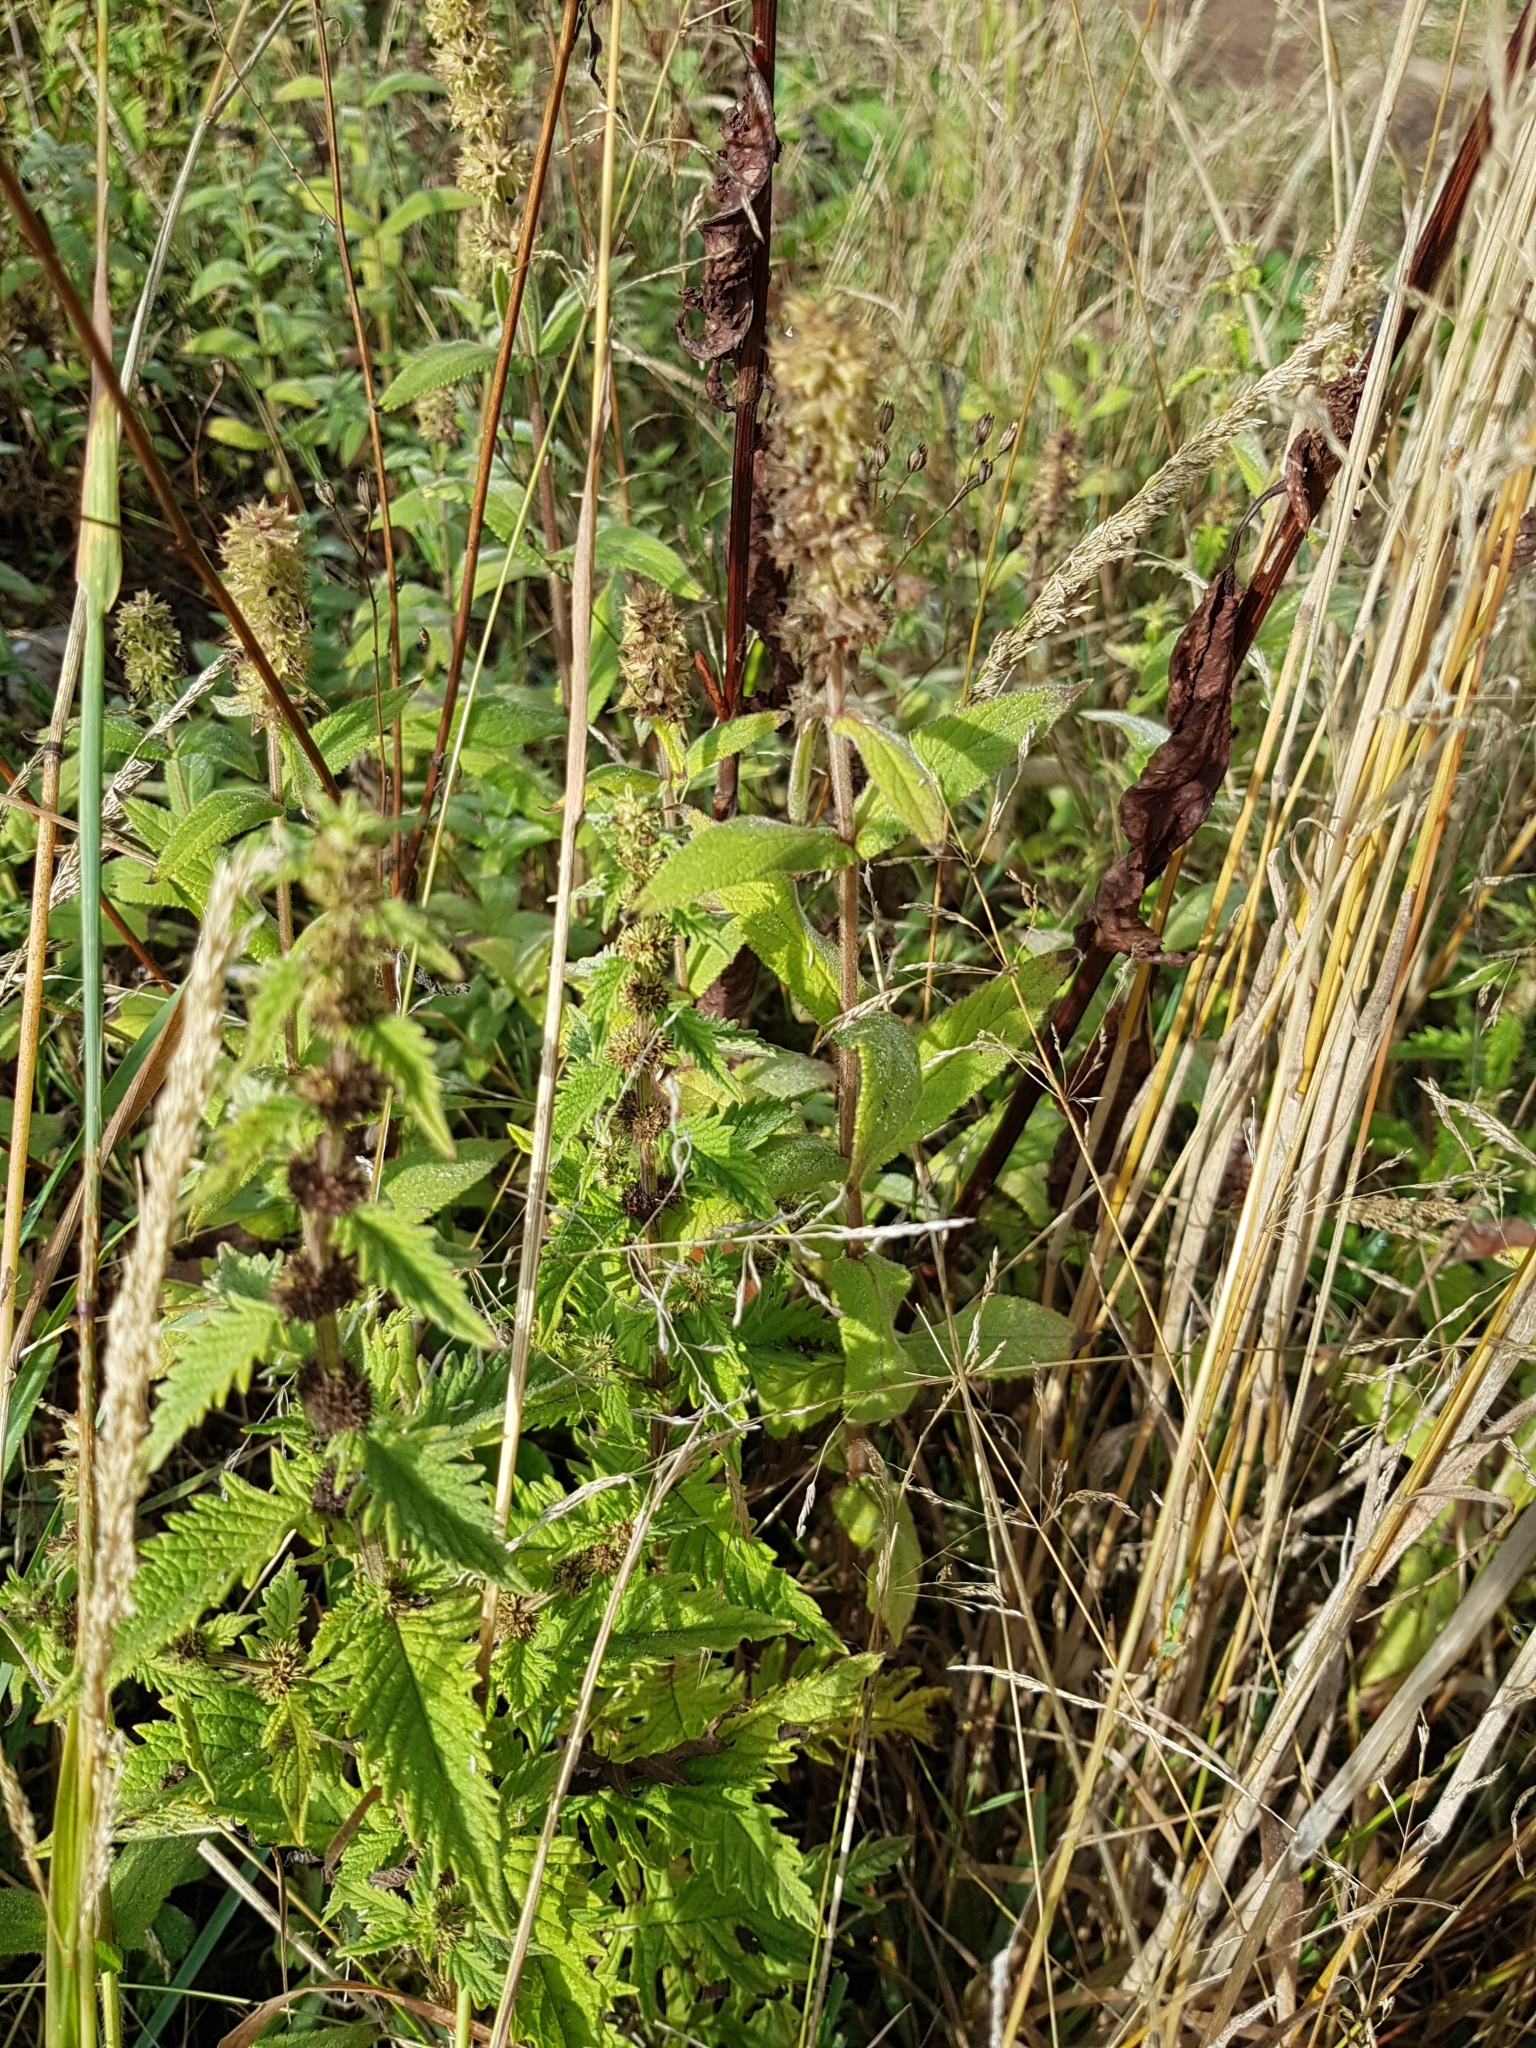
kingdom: Plantae
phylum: Tracheophyta
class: Magnoliopsida
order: Lamiales
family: Lamiaceae
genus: Lycopus
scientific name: Lycopus europaeus
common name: European bugleweed
